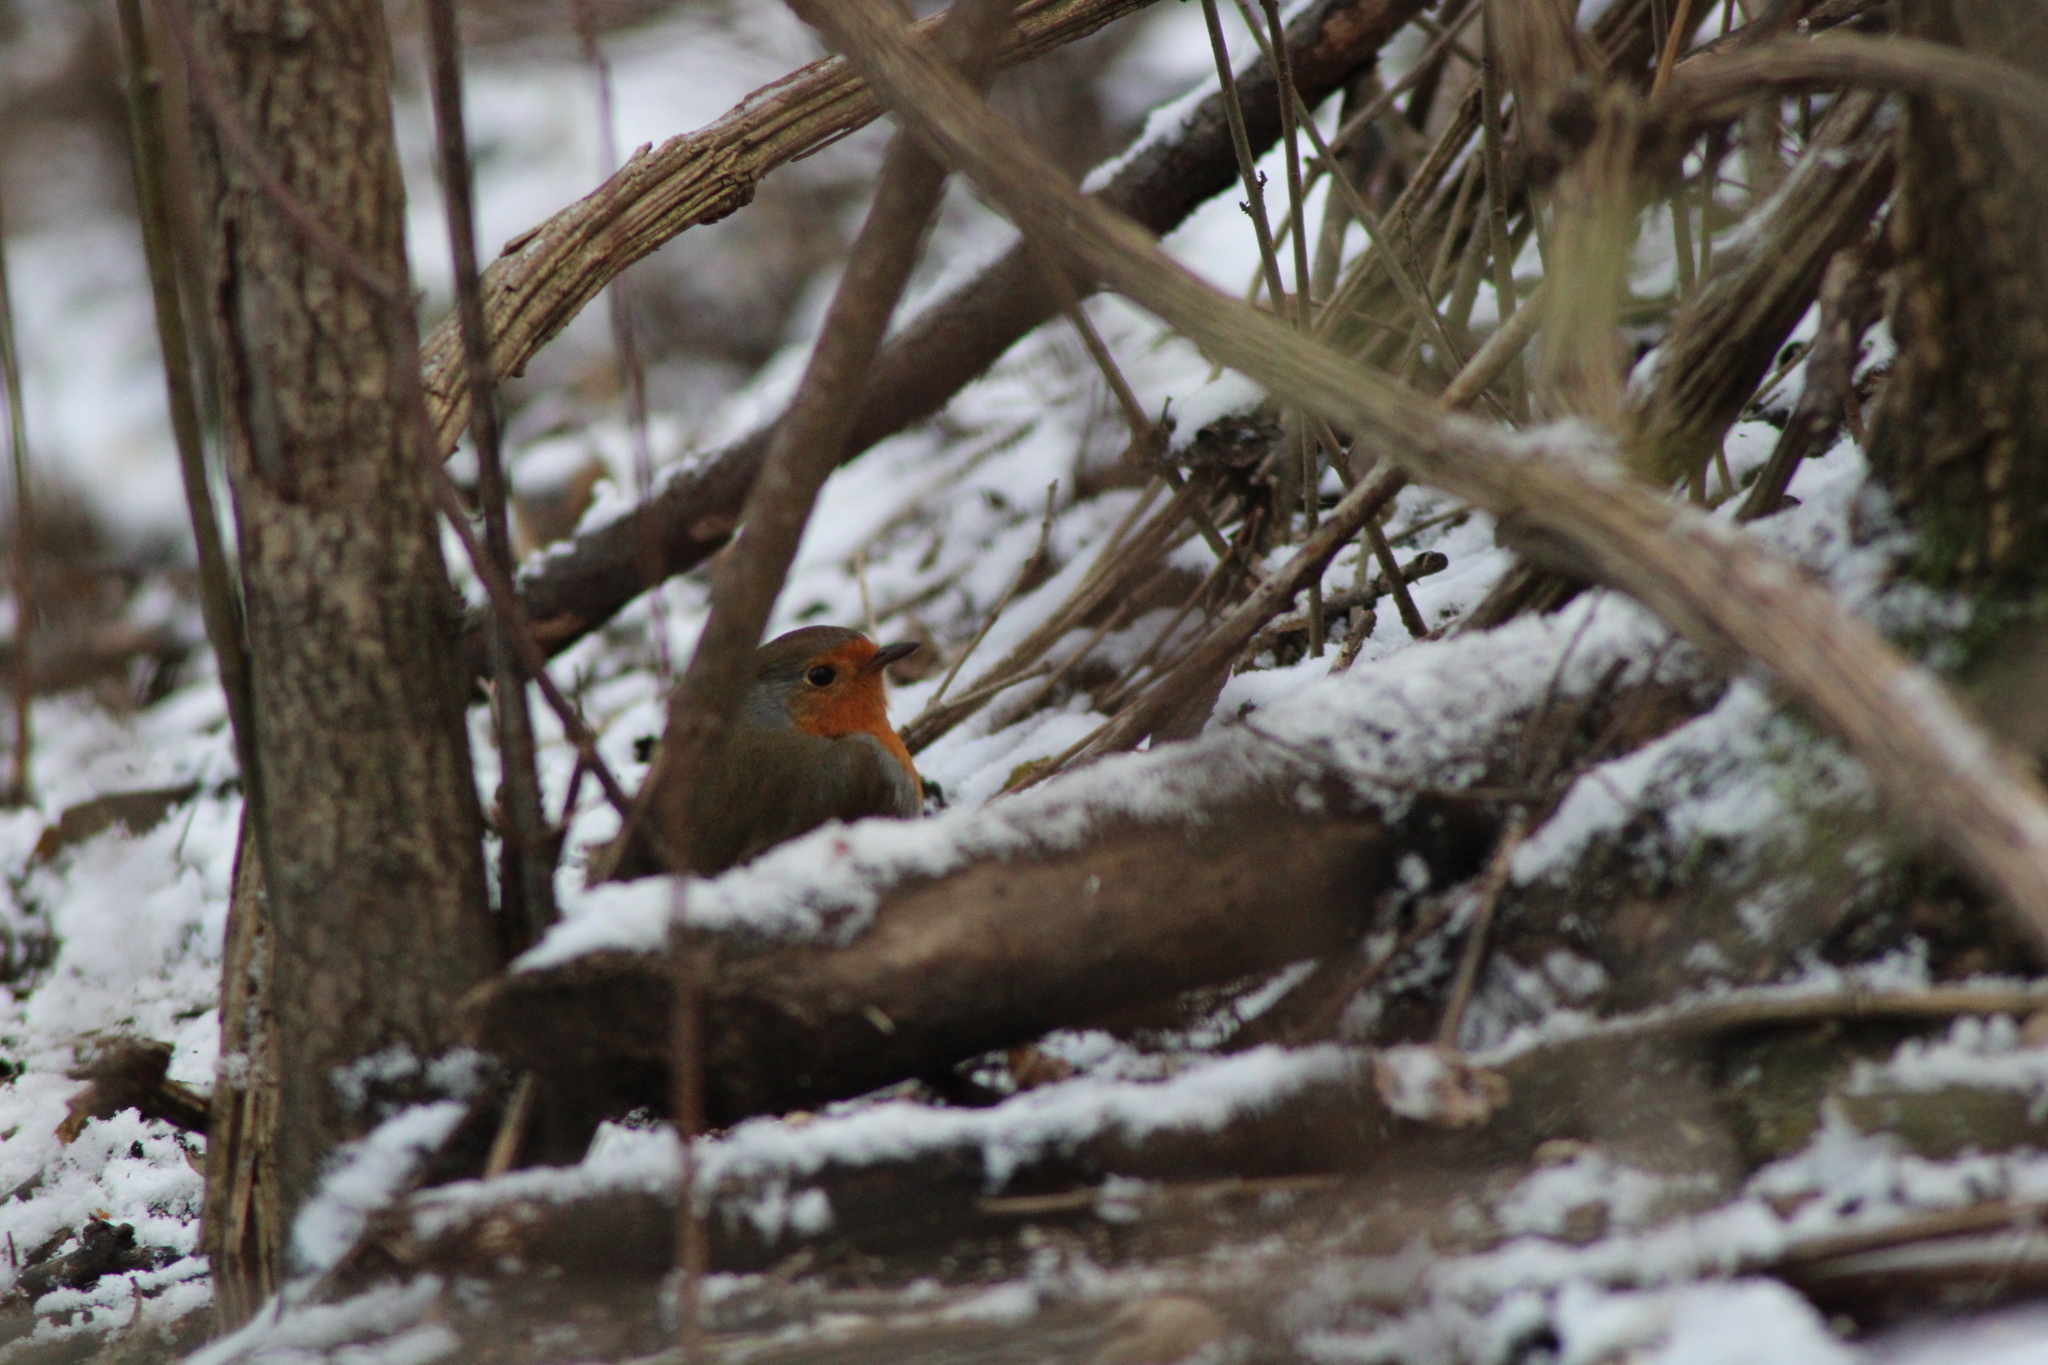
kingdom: Animalia
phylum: Chordata
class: Aves
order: Passeriformes
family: Muscicapidae
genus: Erithacus
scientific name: Erithacus rubecula
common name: European robin
